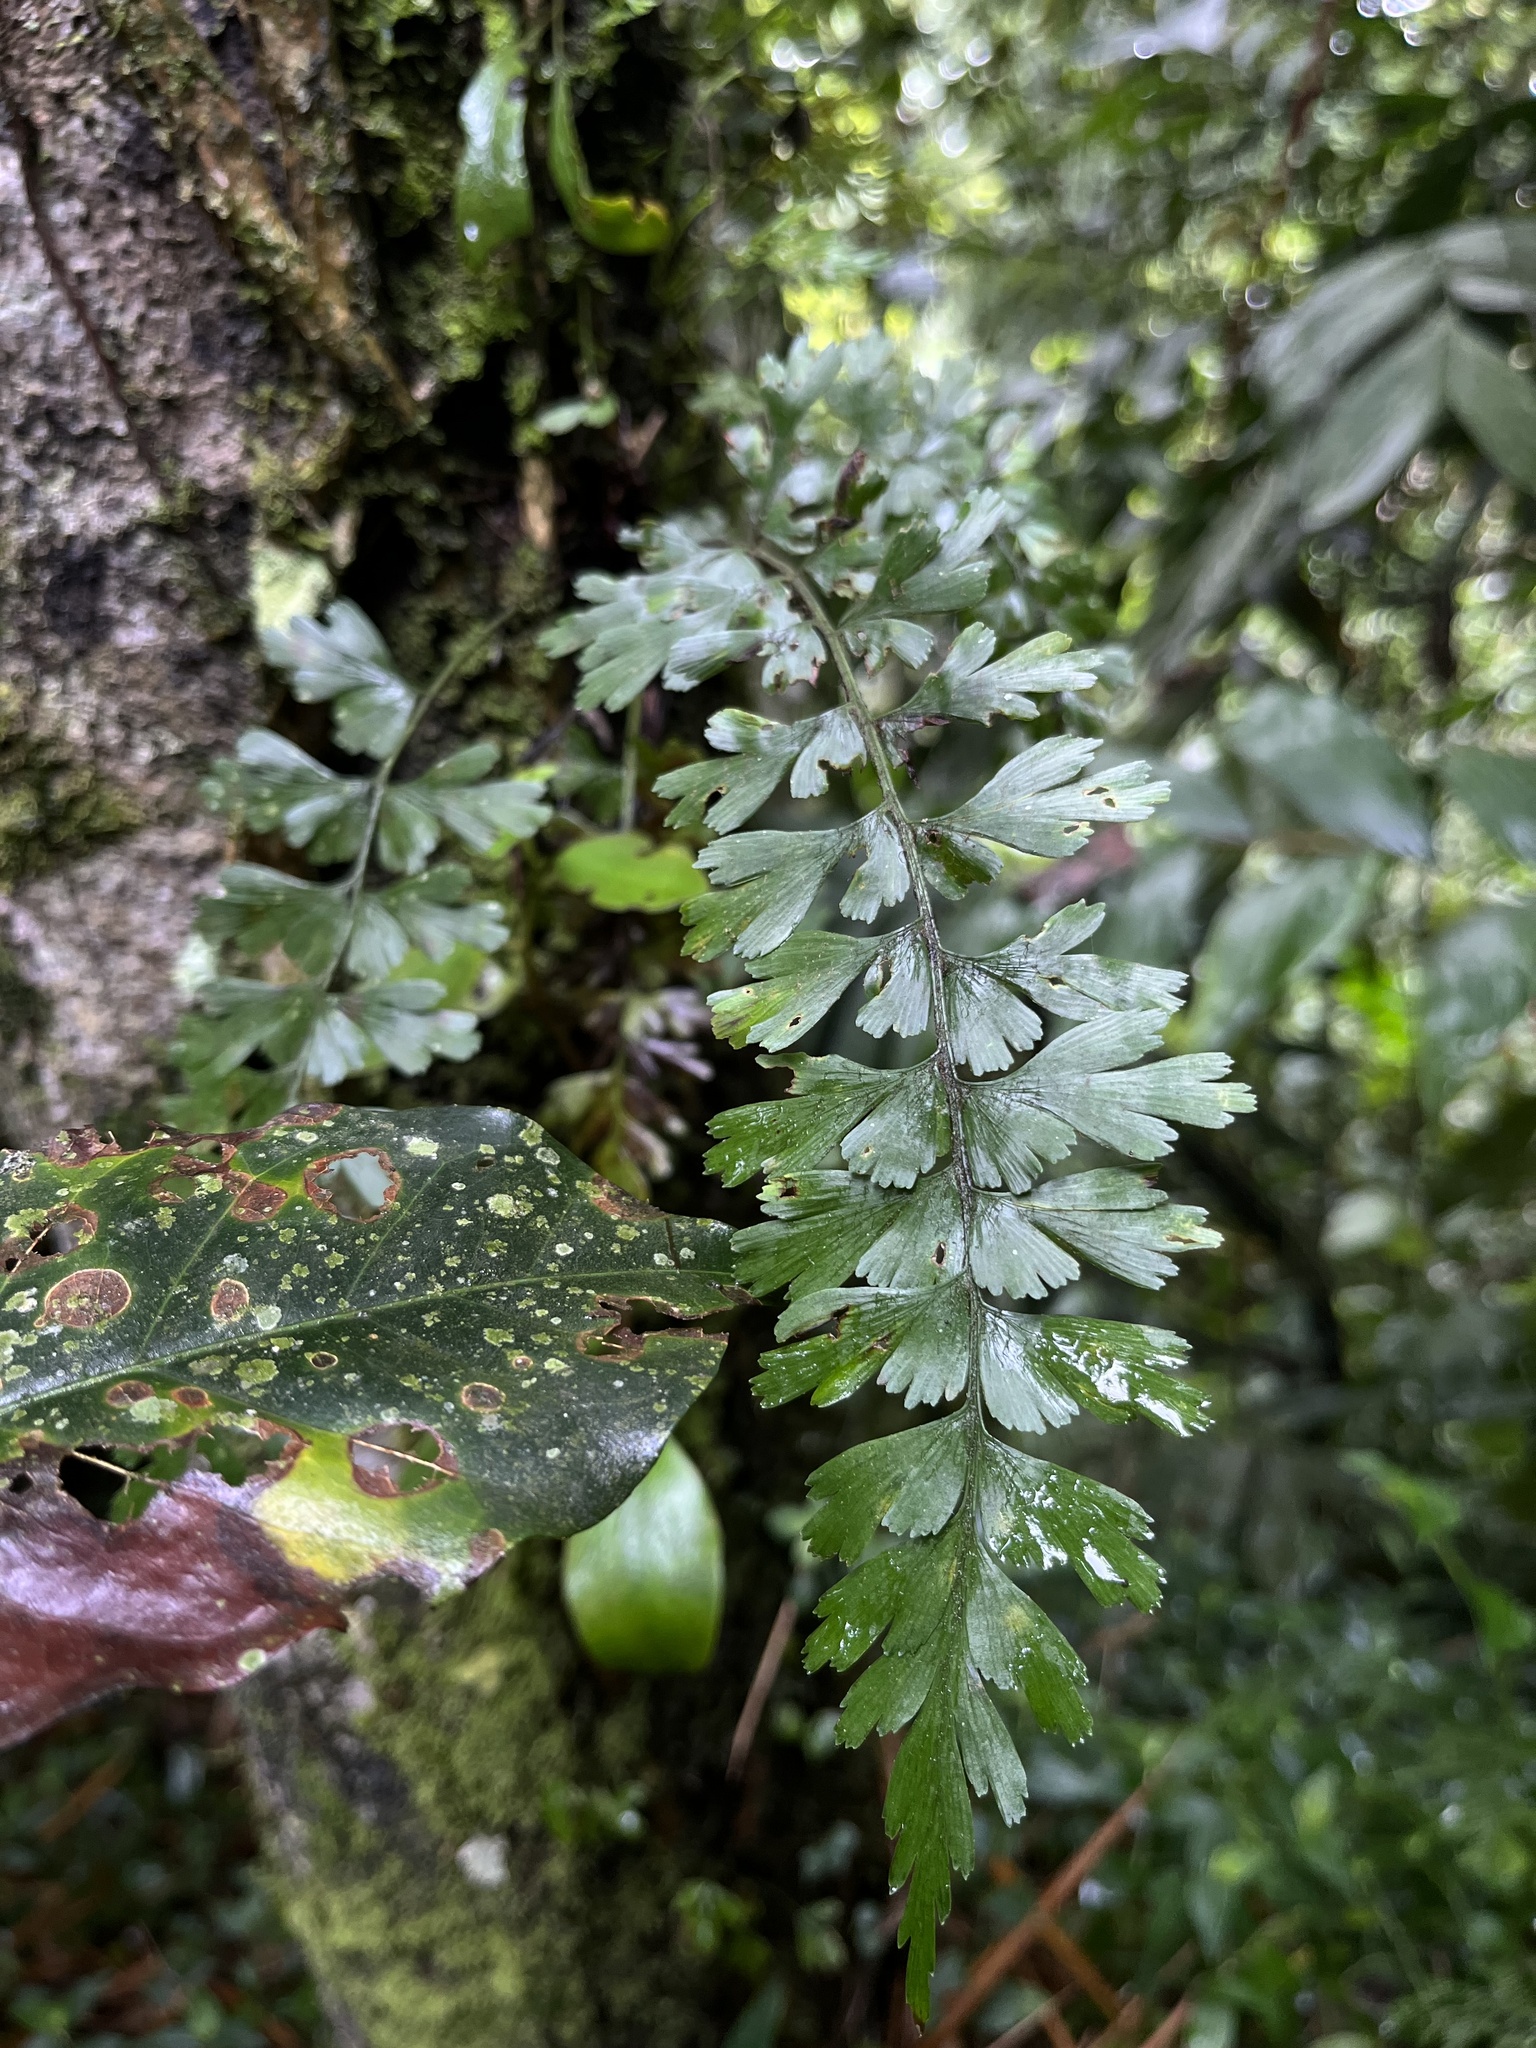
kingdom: Plantae
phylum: Tracheophyta
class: Polypodiopsida
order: Polypodiales
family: Aspleniaceae
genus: Asplenium
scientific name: Asplenium praemorsum
